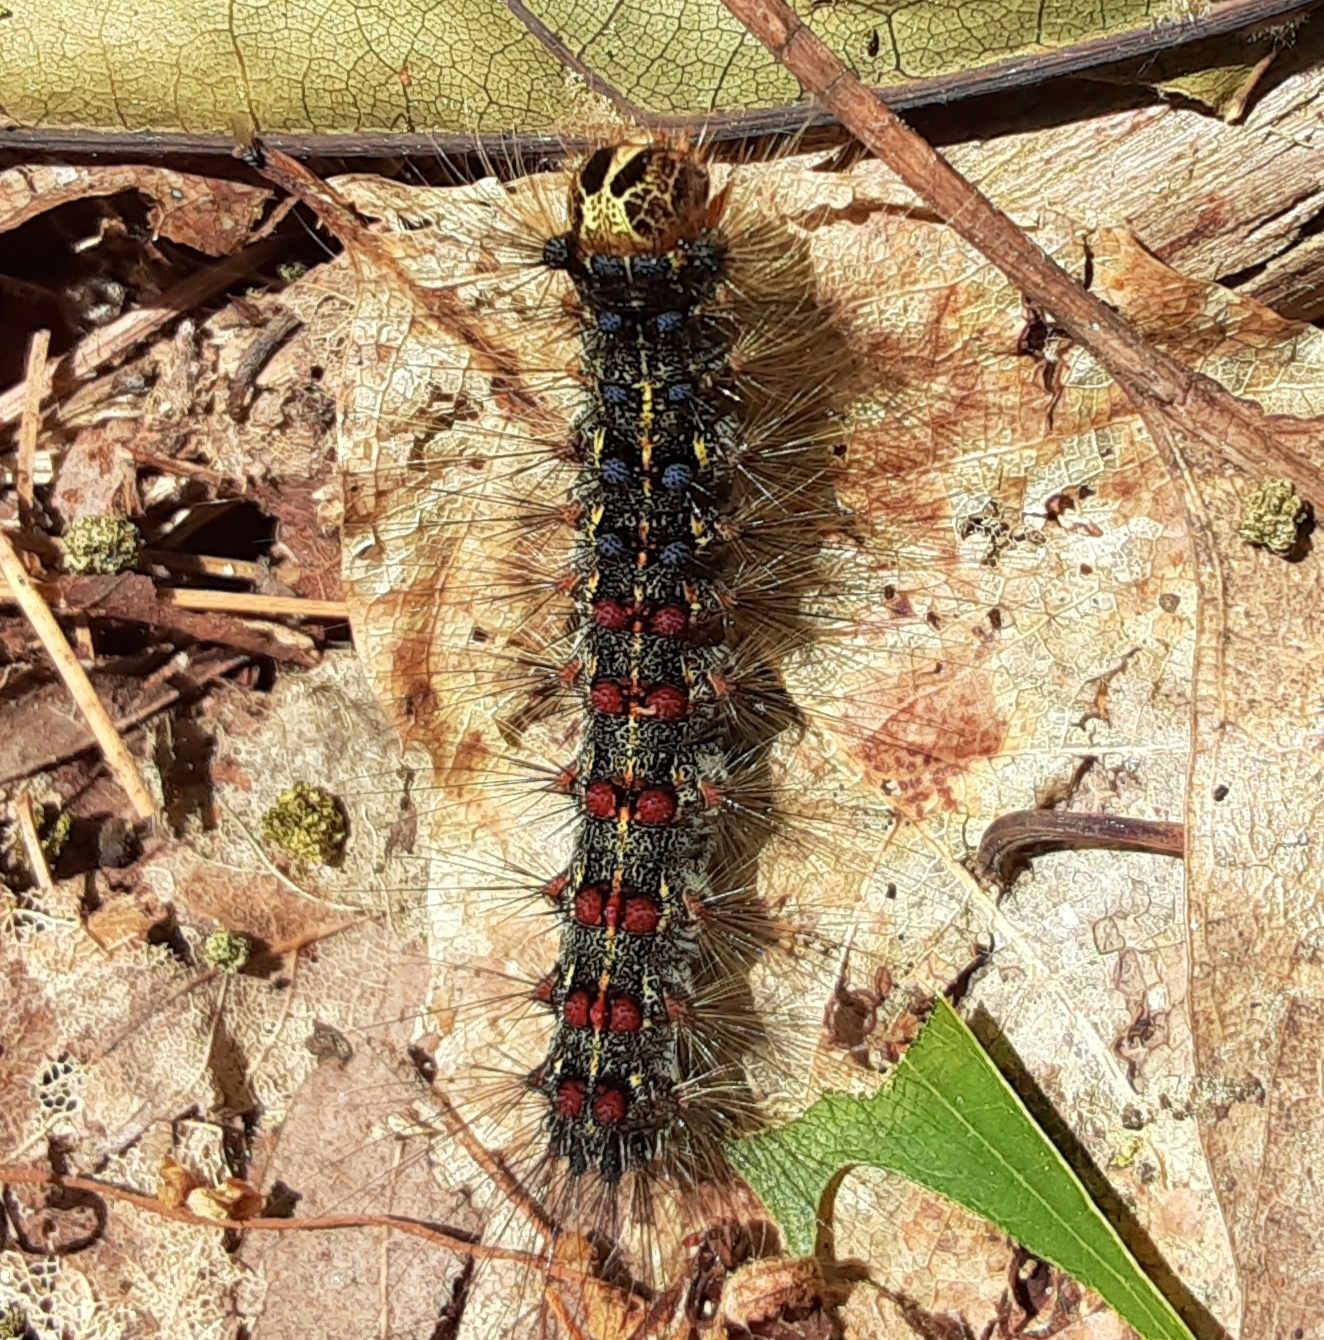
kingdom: Animalia
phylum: Arthropoda
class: Insecta
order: Lepidoptera
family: Erebidae
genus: Lymantria
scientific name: Lymantria dispar
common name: Gypsy moth
